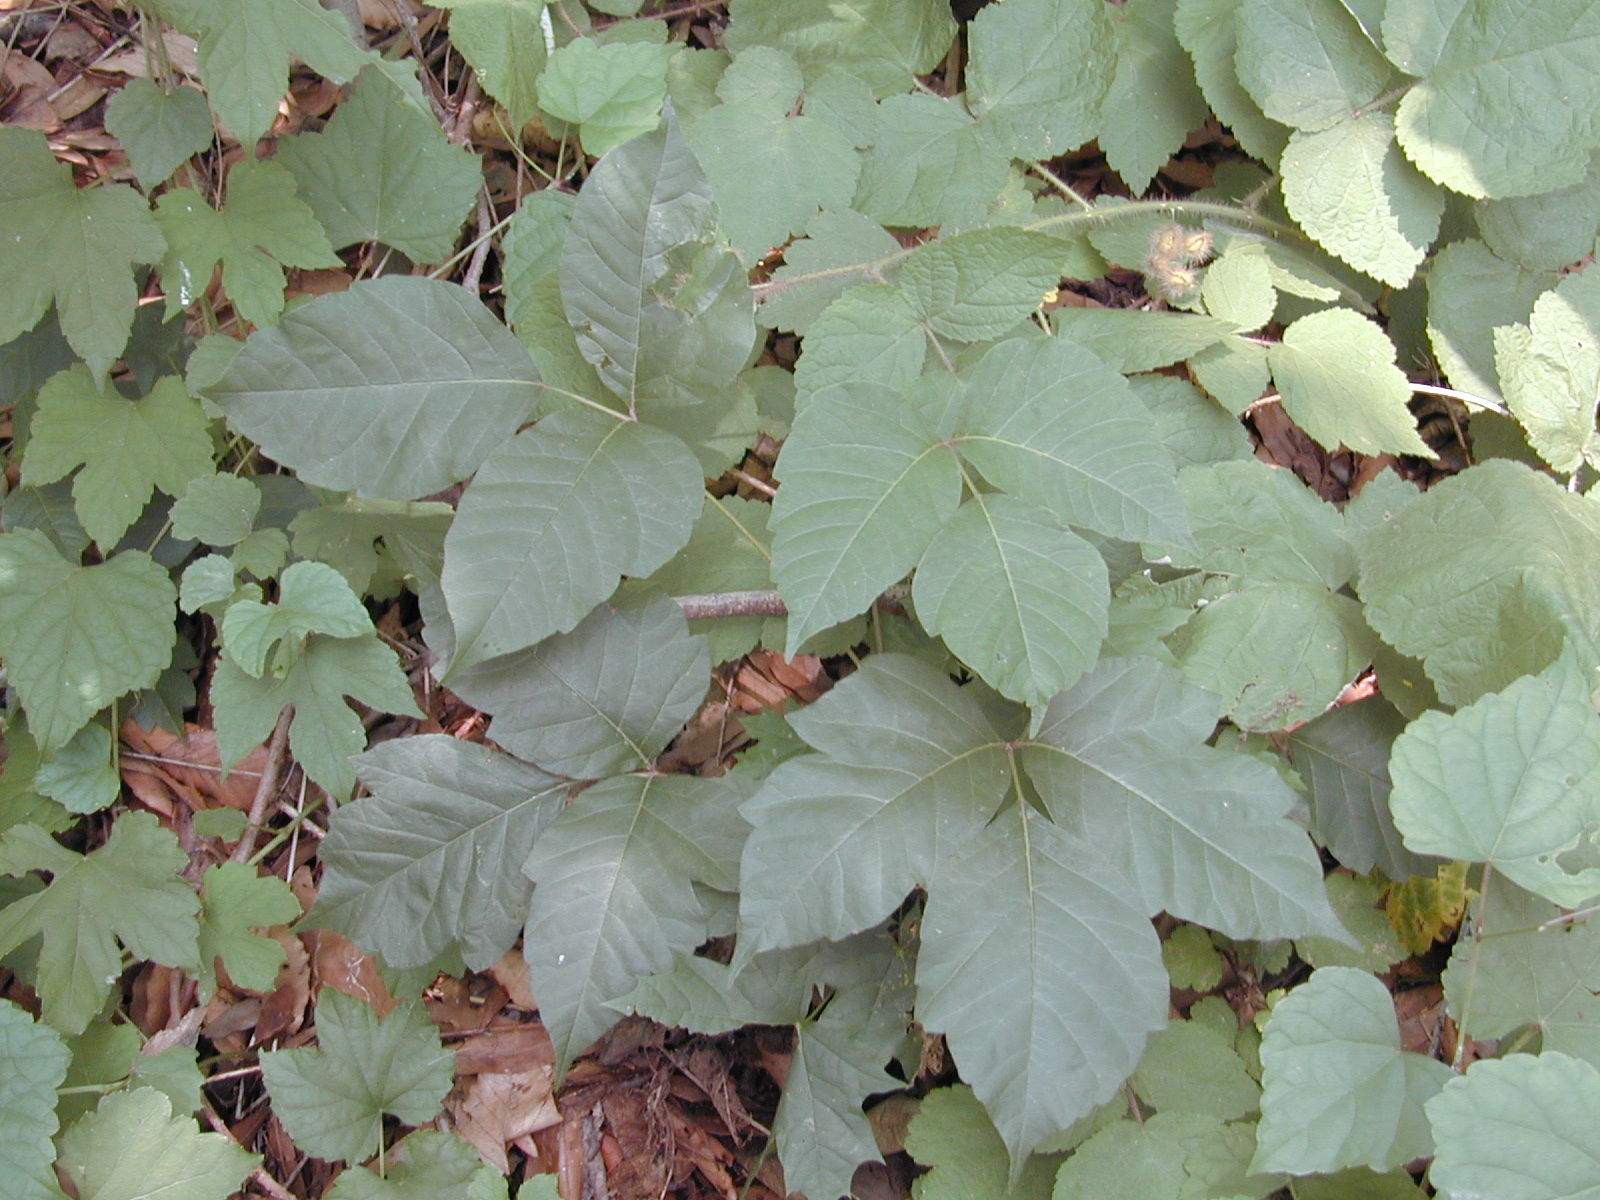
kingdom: Plantae
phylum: Tracheophyta
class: Magnoliopsida
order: Sapindales
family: Anacardiaceae
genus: Toxicodendron
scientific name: Toxicodendron radicans
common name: Poison ivy
